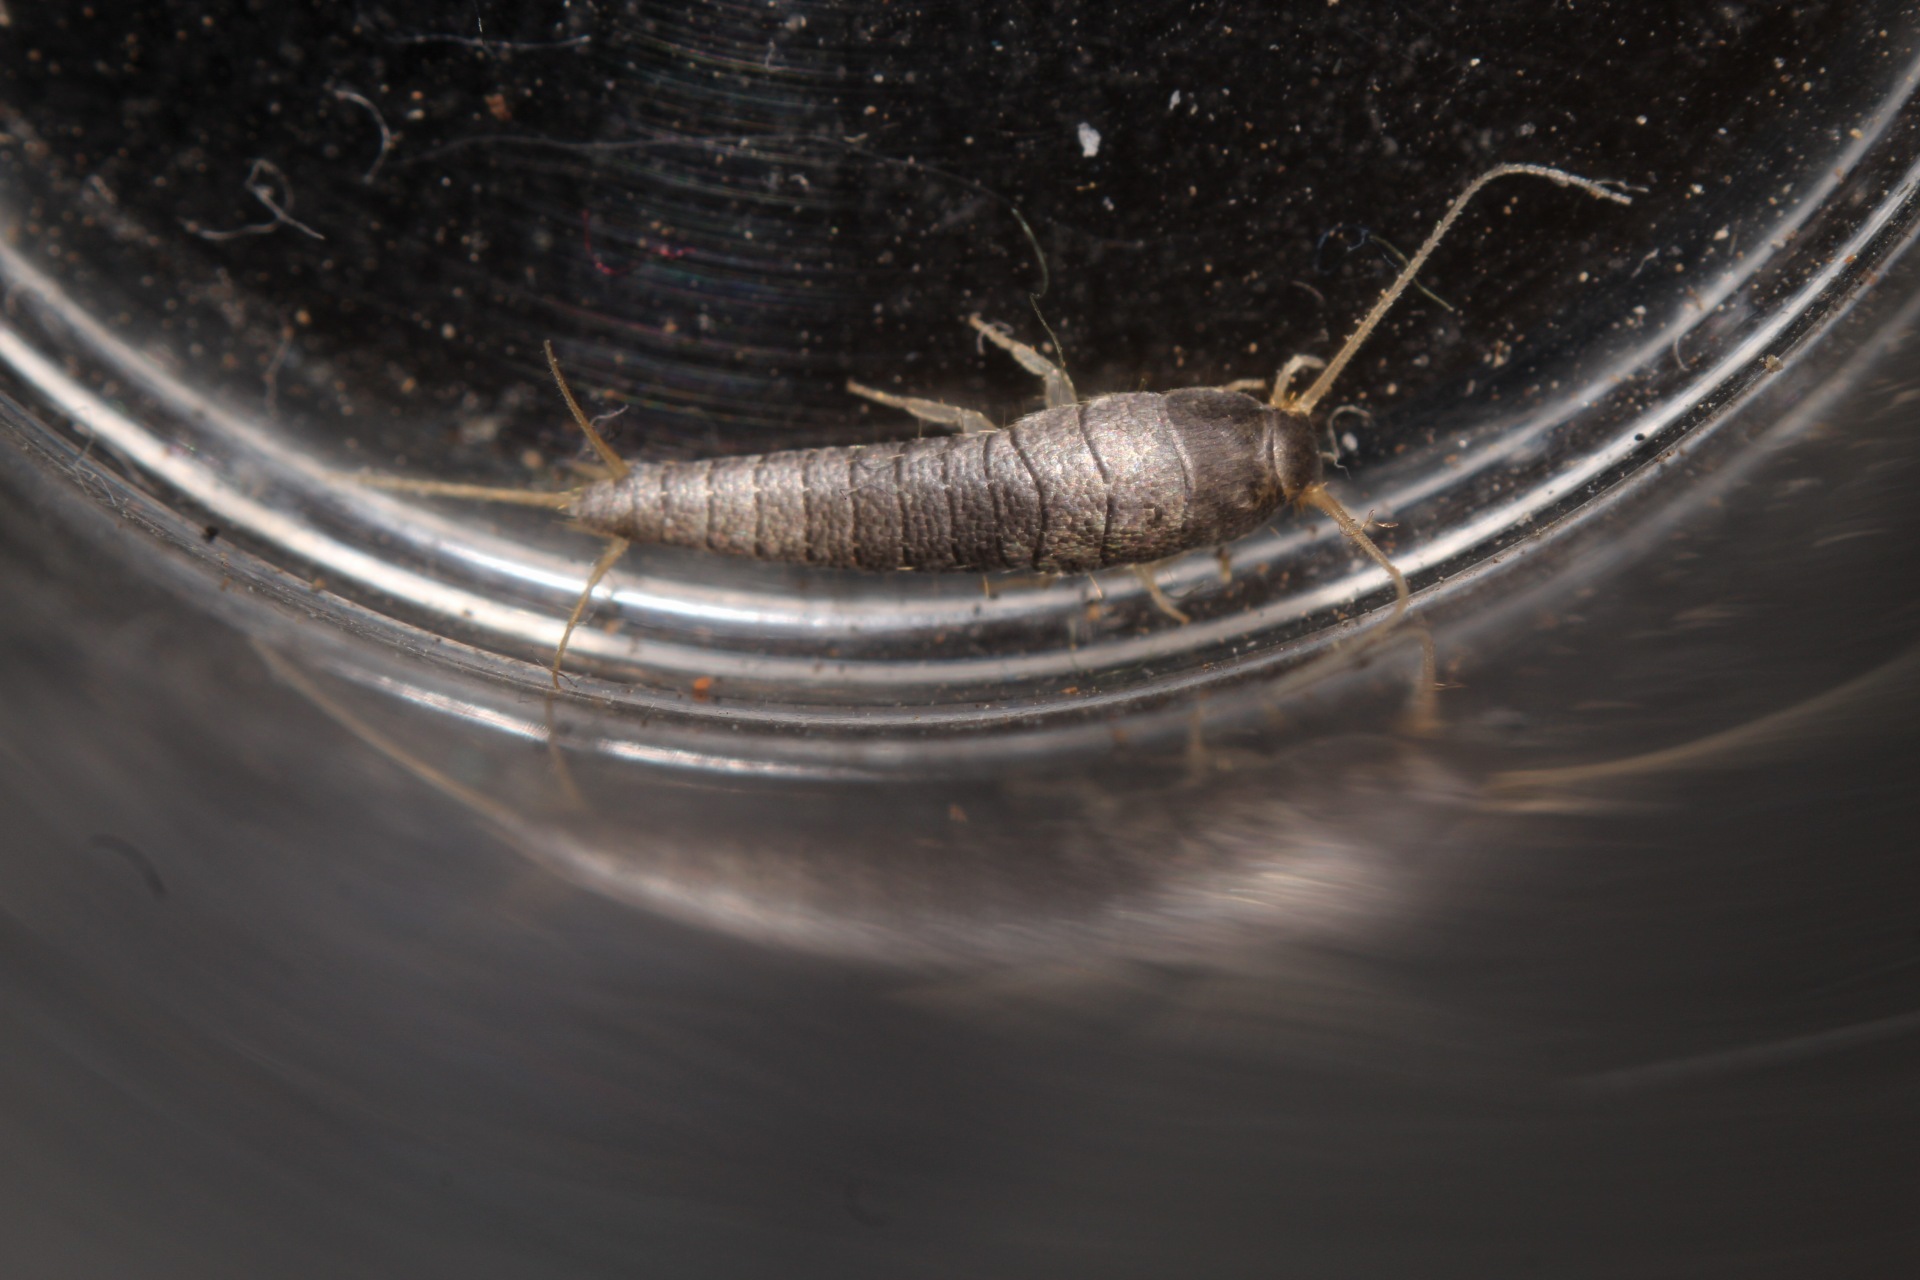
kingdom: Animalia
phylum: Arthropoda
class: Insecta
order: Zygentoma
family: Lepismatidae
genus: Lepisma
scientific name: Lepisma saccharinum
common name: Silverfish
